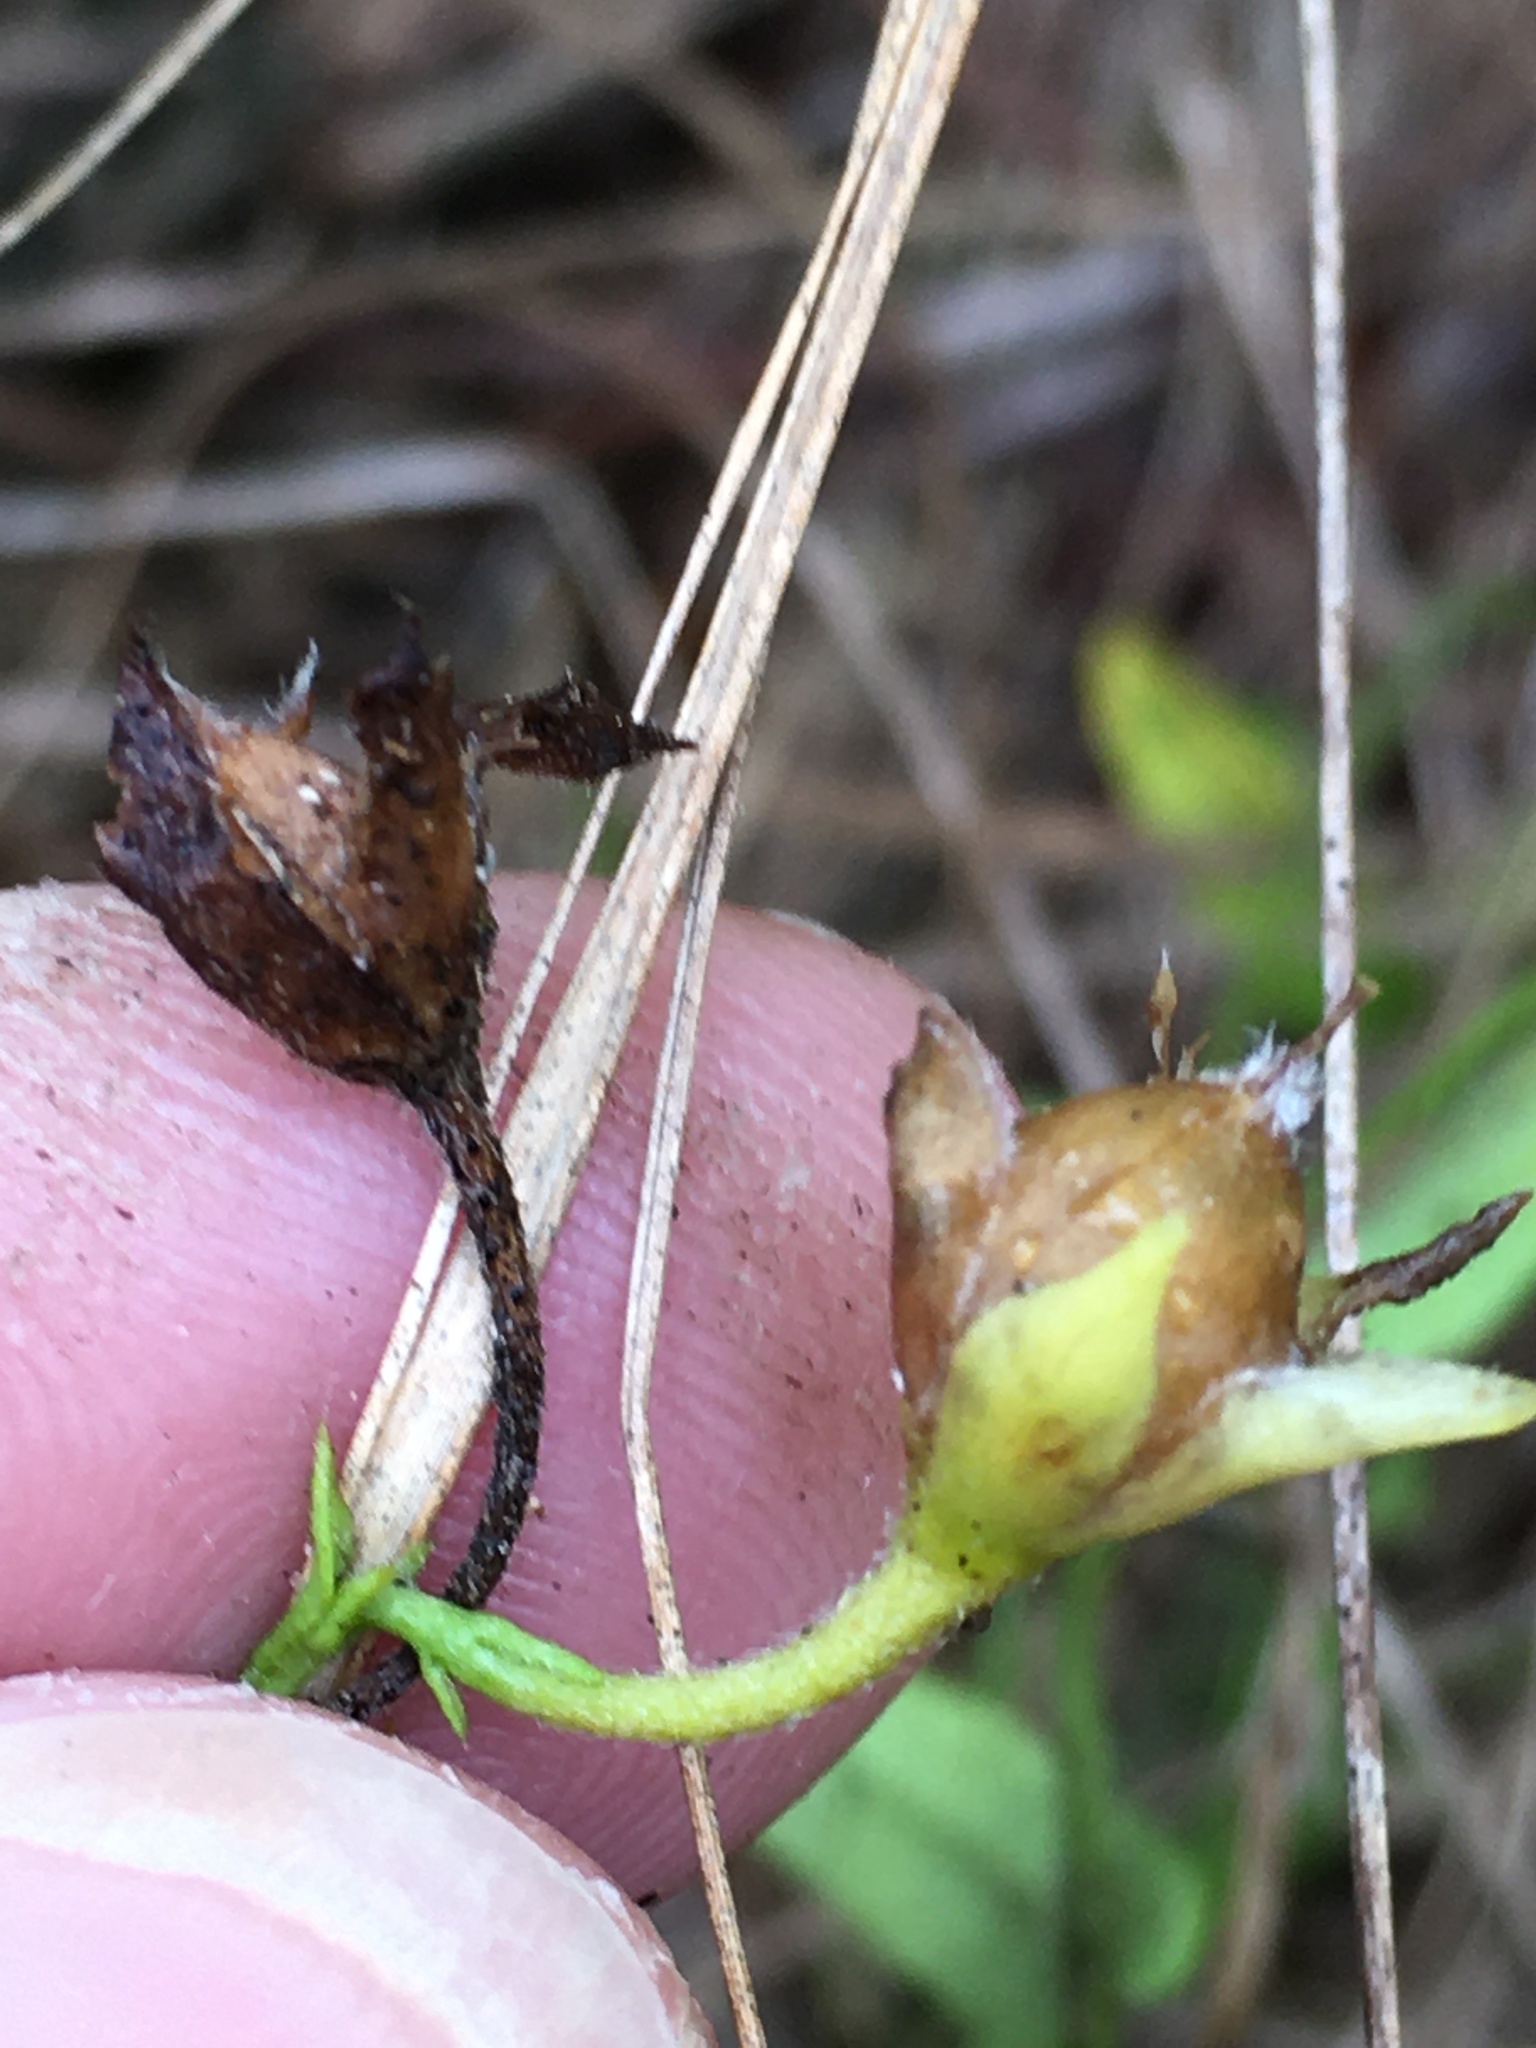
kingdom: Plantae
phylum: Tracheophyta
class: Magnoliopsida
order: Solanales
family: Convolvulaceae
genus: Stylisma
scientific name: Stylisma patens
